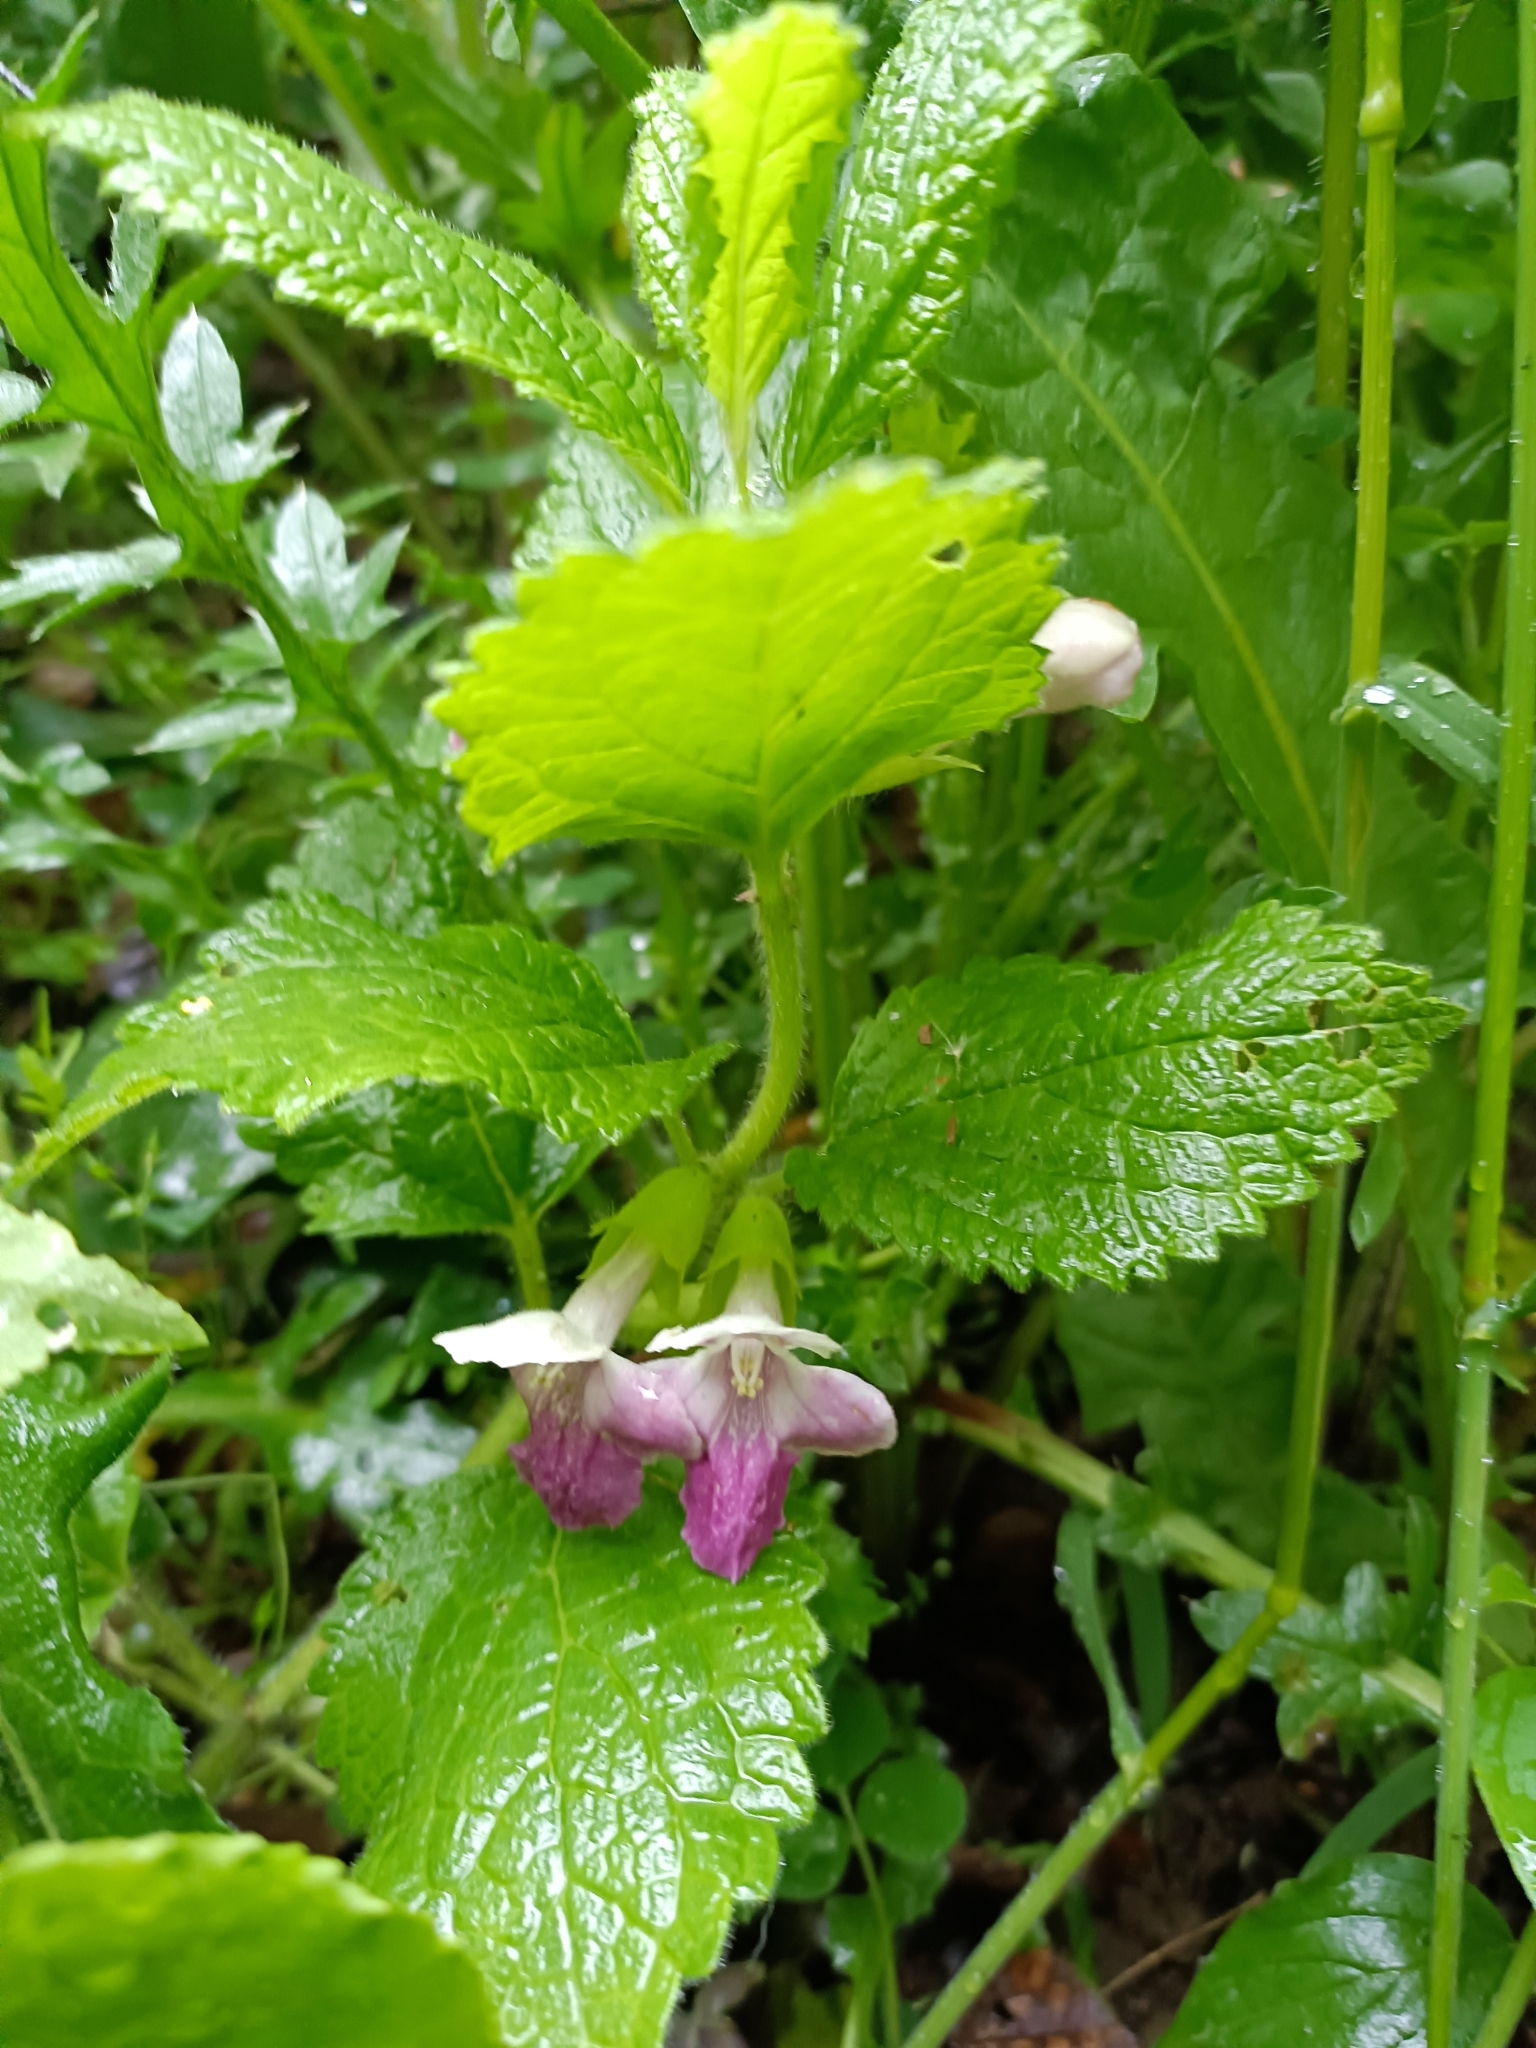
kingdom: Plantae
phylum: Tracheophyta
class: Magnoliopsida
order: Lamiales
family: Lamiaceae
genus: Melittis
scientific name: Melittis melissophyllum
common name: Bastard balm
